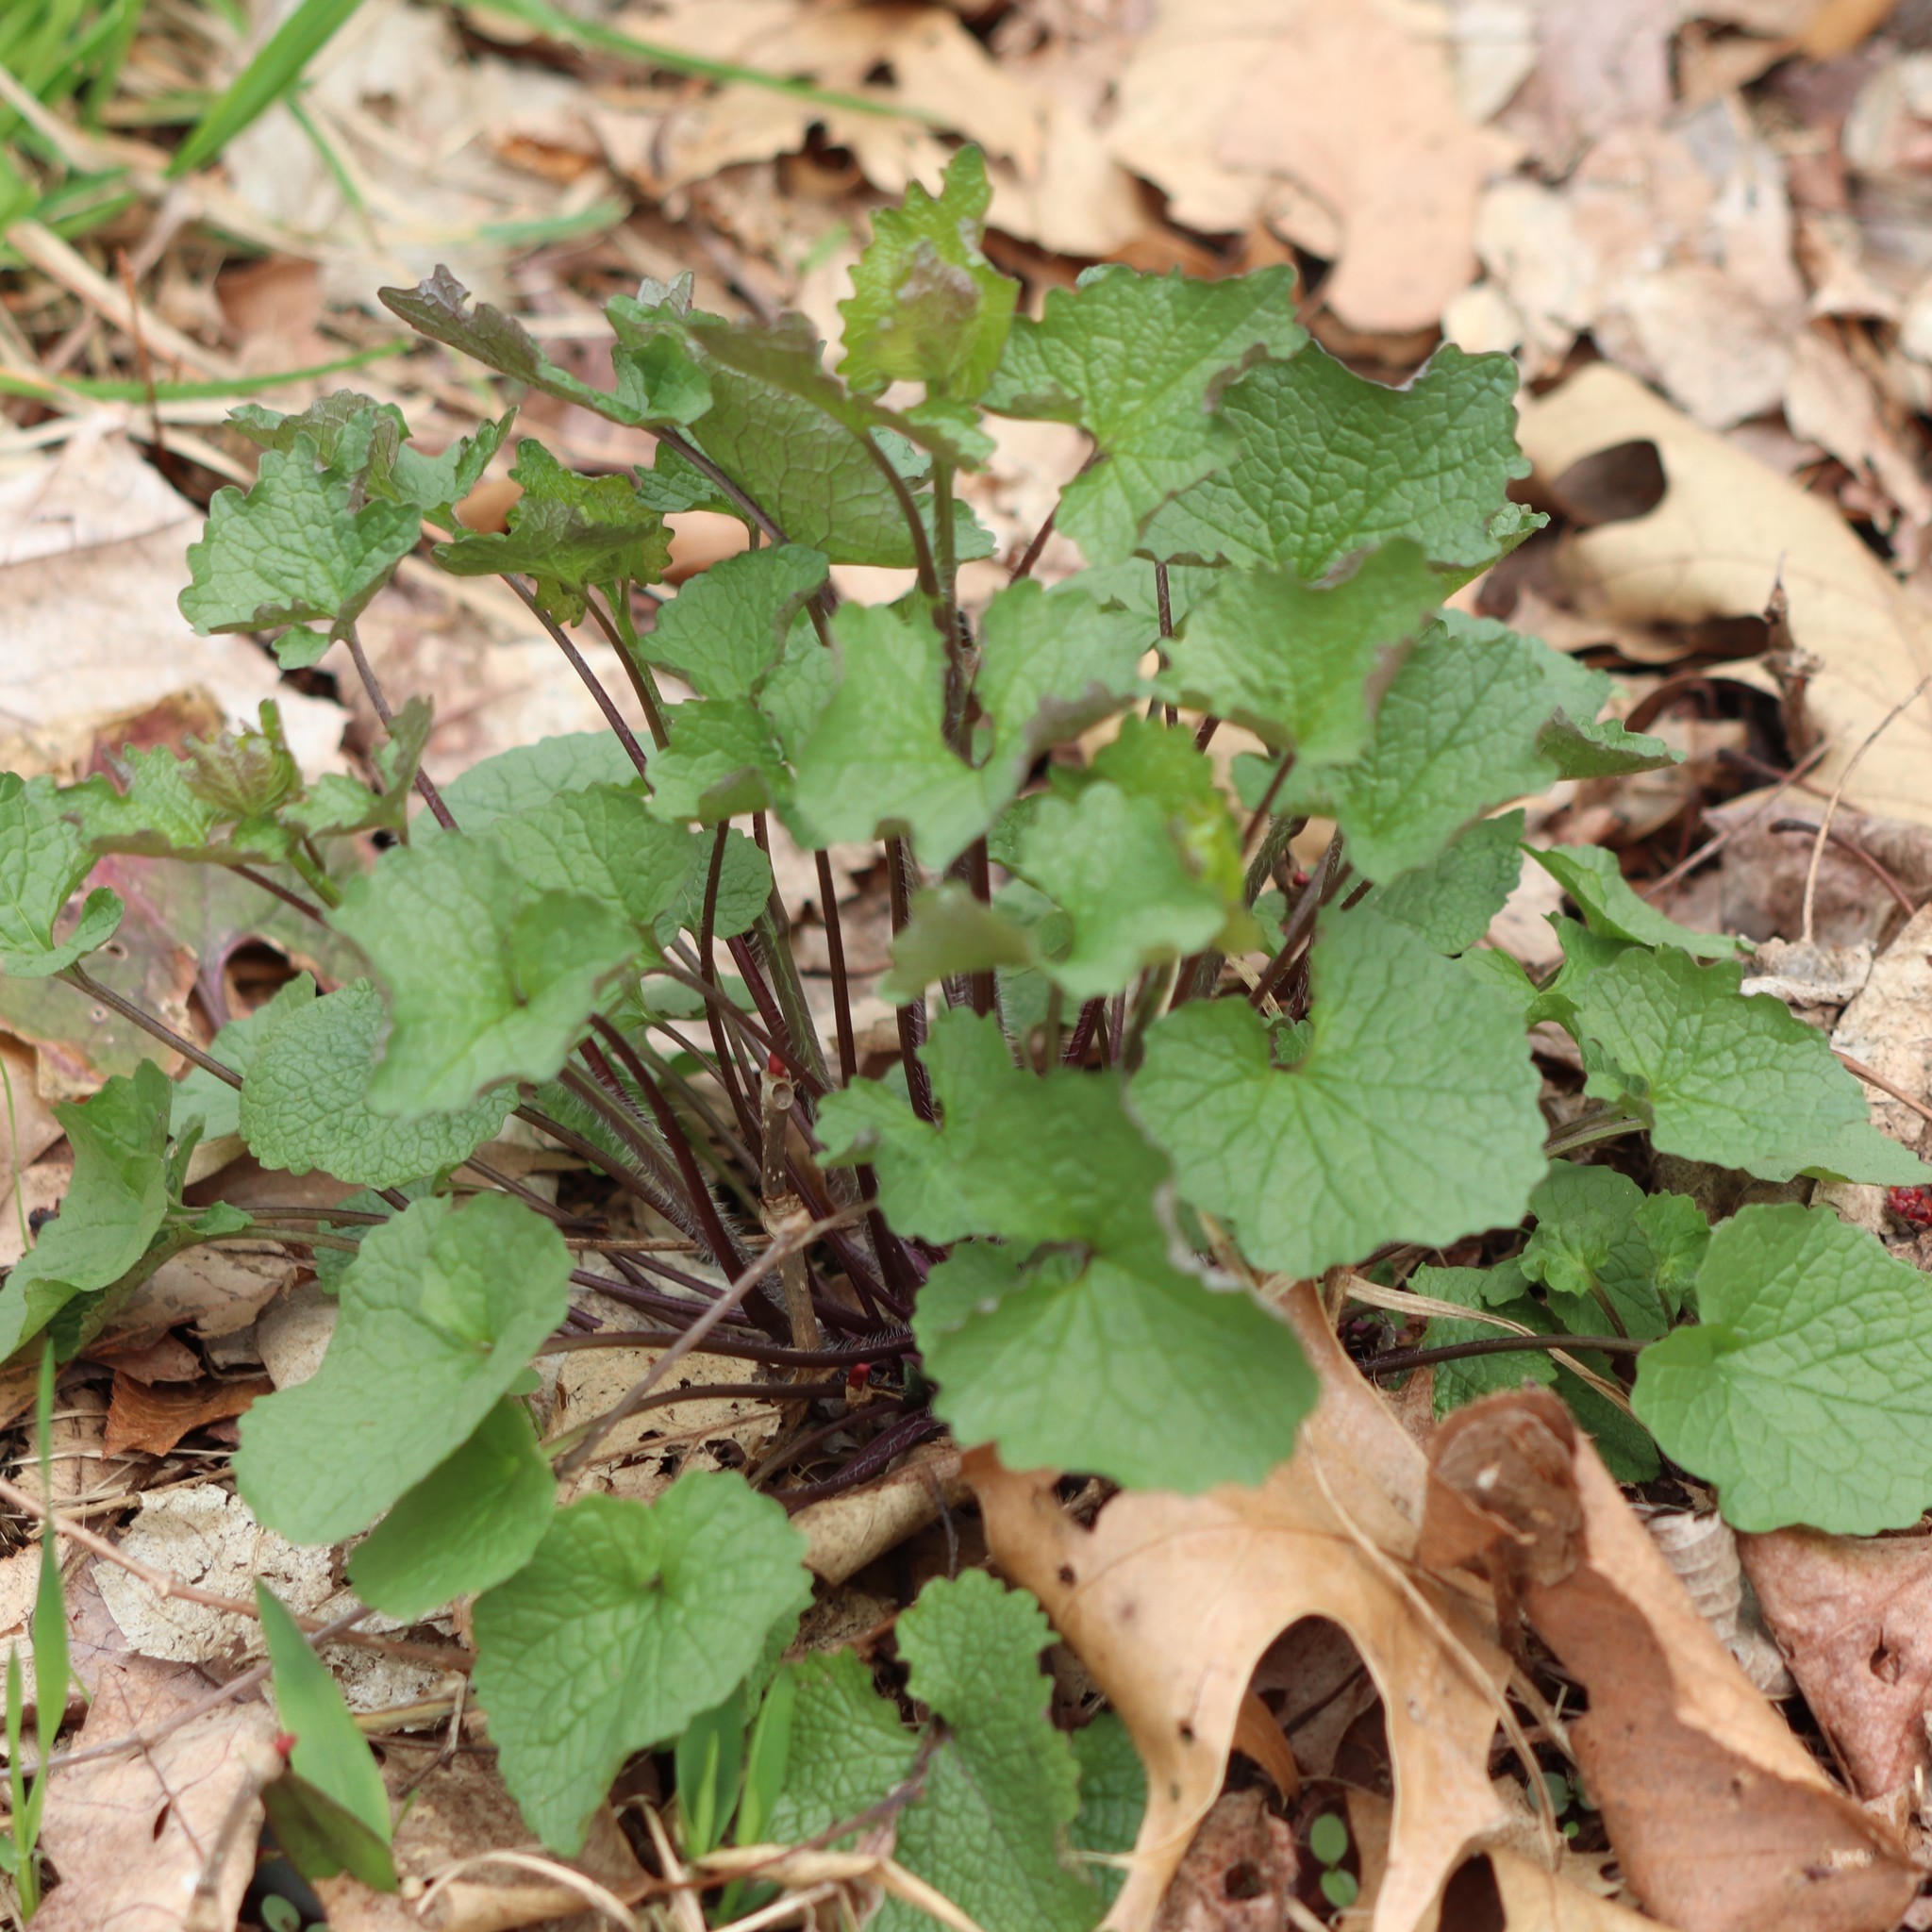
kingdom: Plantae
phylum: Tracheophyta
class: Magnoliopsida
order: Brassicales
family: Brassicaceae
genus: Alliaria
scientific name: Alliaria petiolata
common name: Garlic mustard
